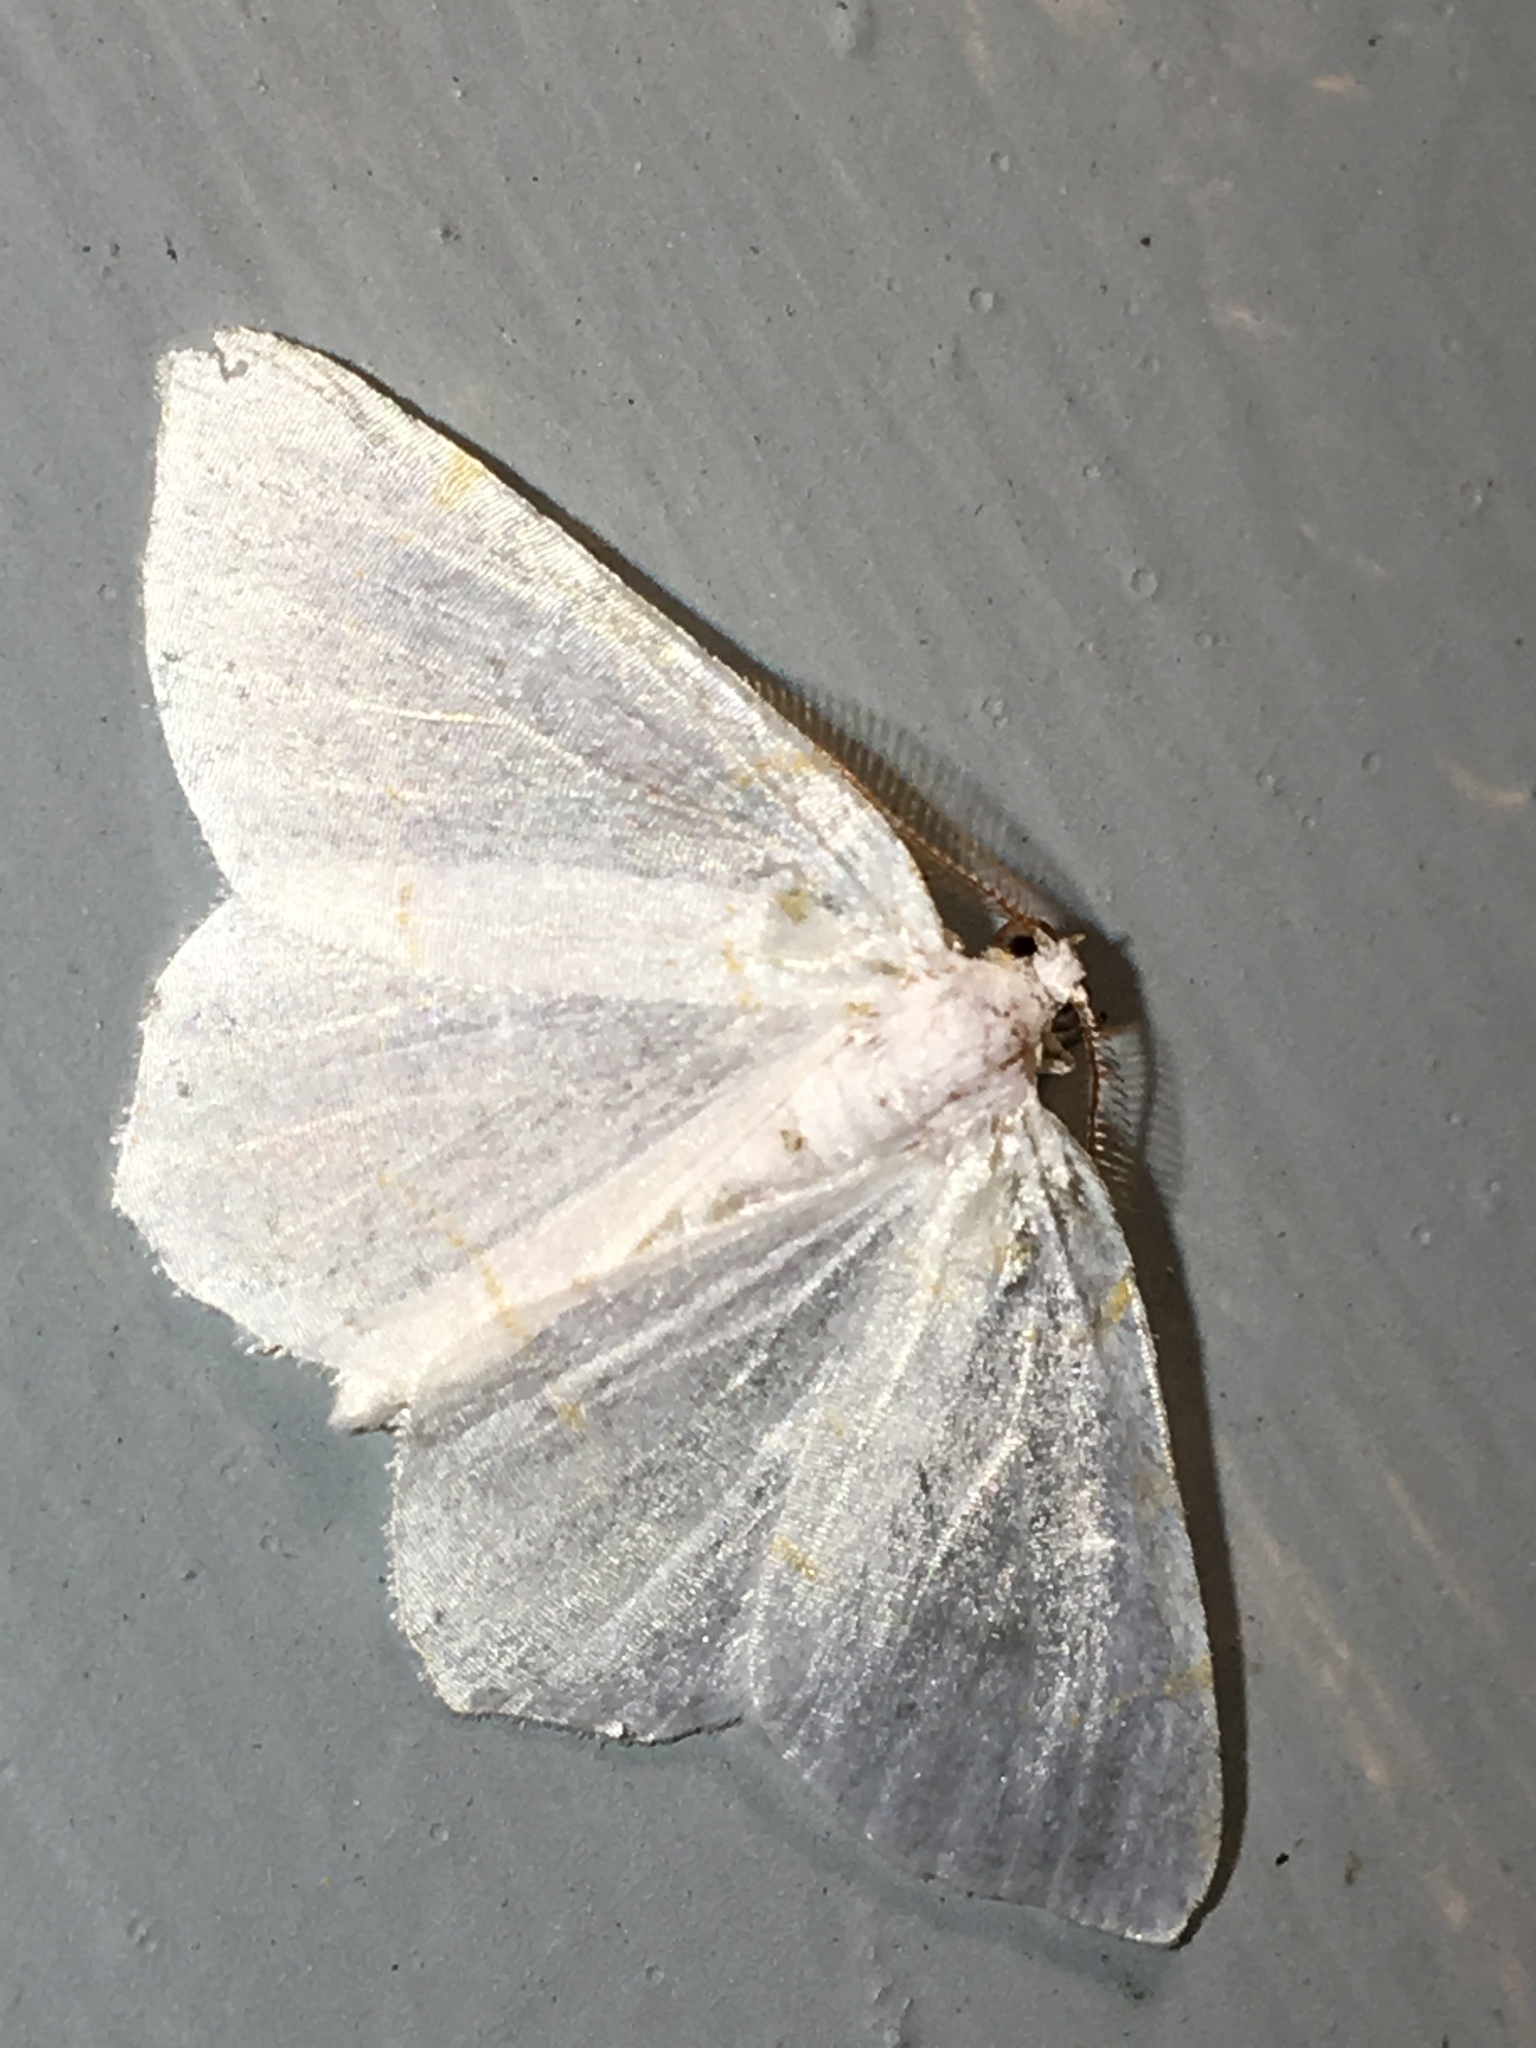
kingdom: Animalia
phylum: Arthropoda
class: Insecta
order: Lepidoptera
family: Geometridae
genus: Macaria
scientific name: Macaria pustularia
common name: Lesser maple spanworm moth
